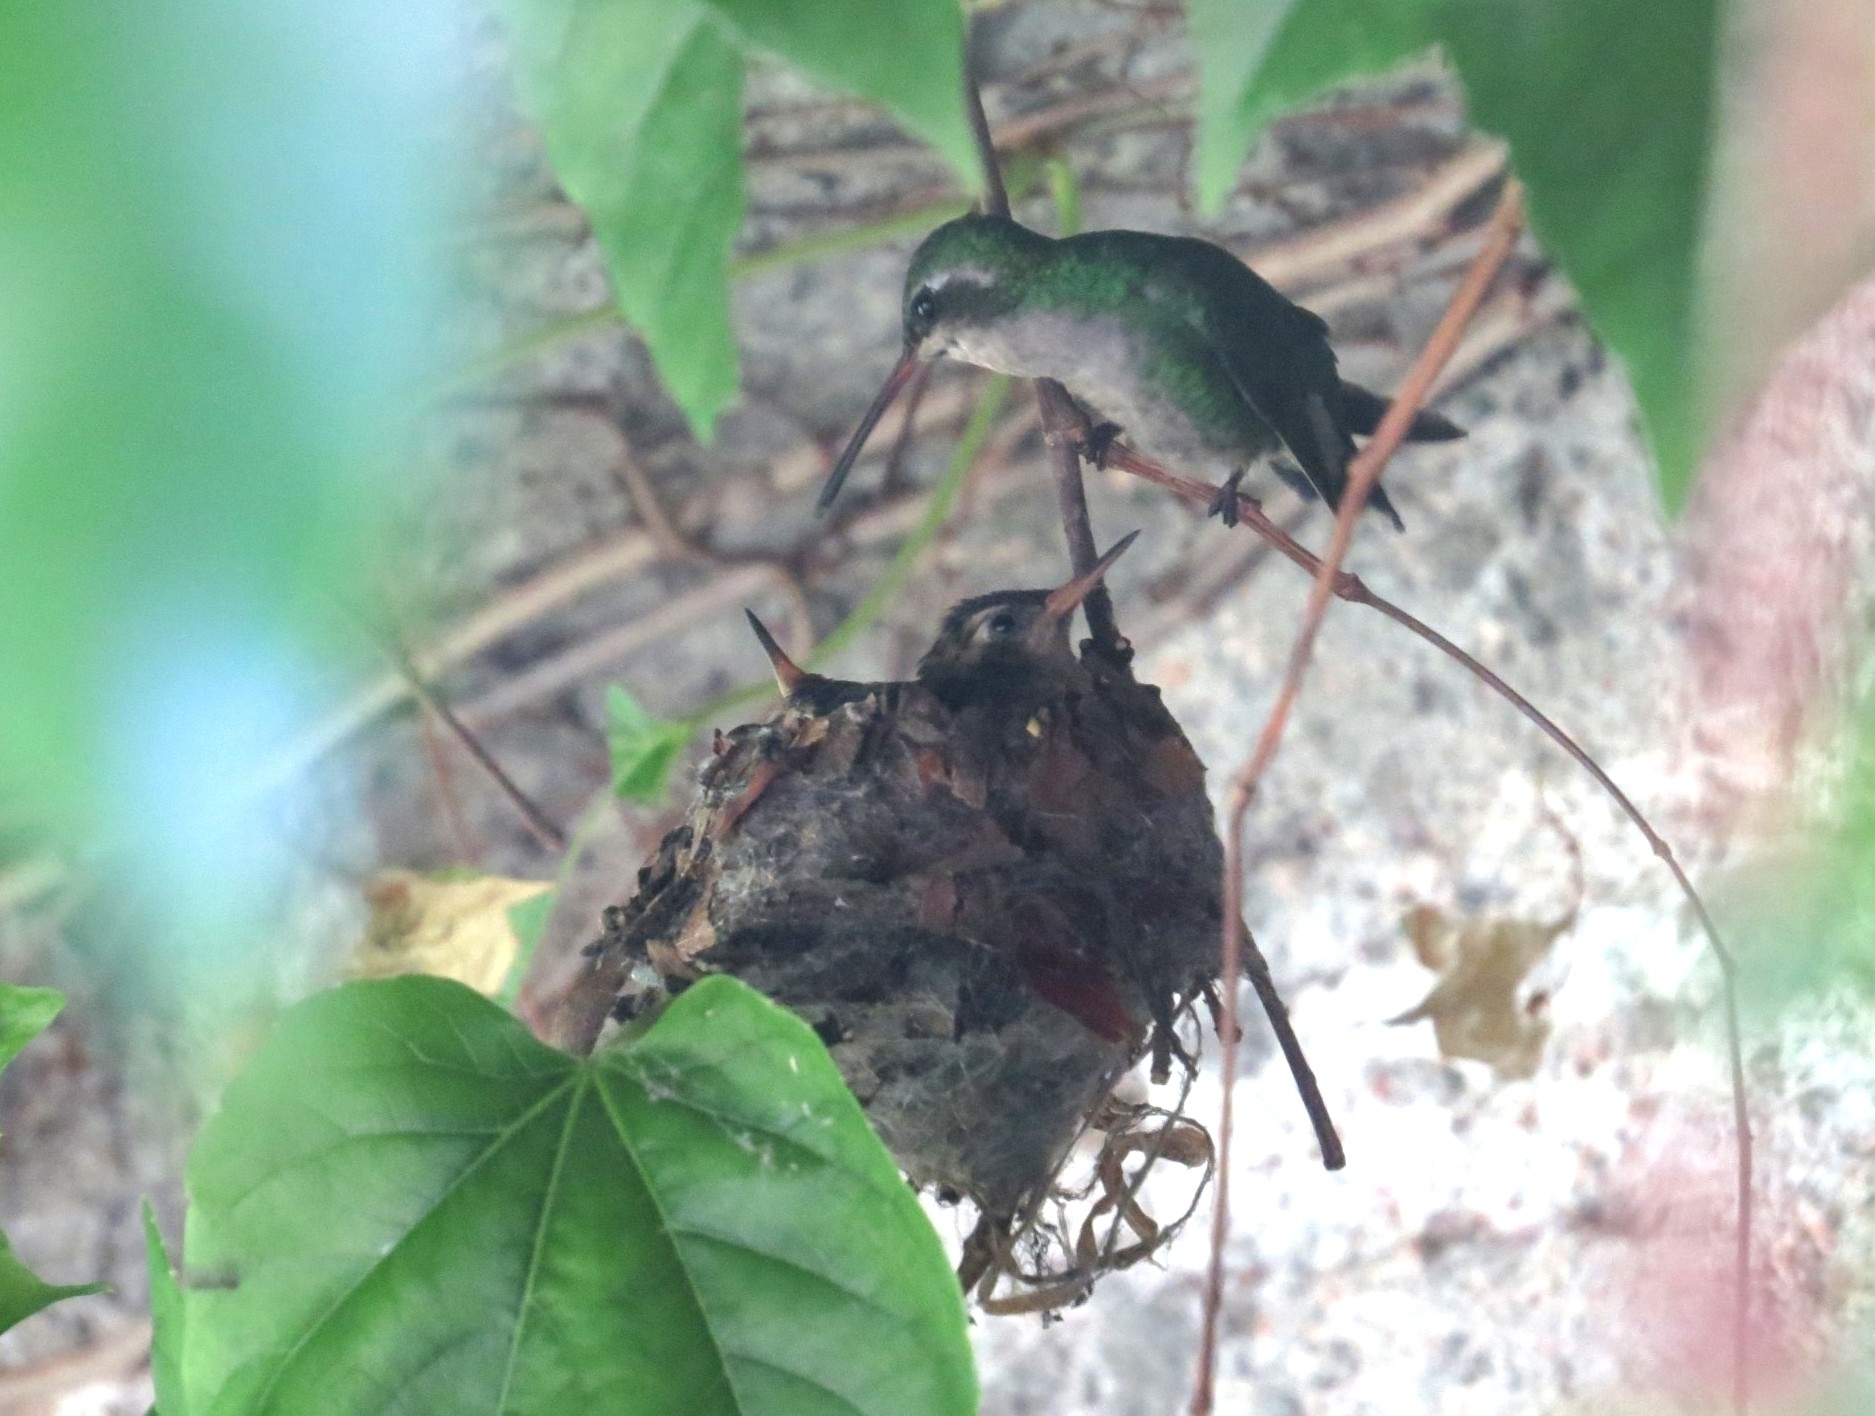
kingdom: Animalia
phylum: Chordata
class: Aves
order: Apodiformes
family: Trochilidae
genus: Chlorostilbon
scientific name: Chlorostilbon lucidus
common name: Glittering-bellied emerald
